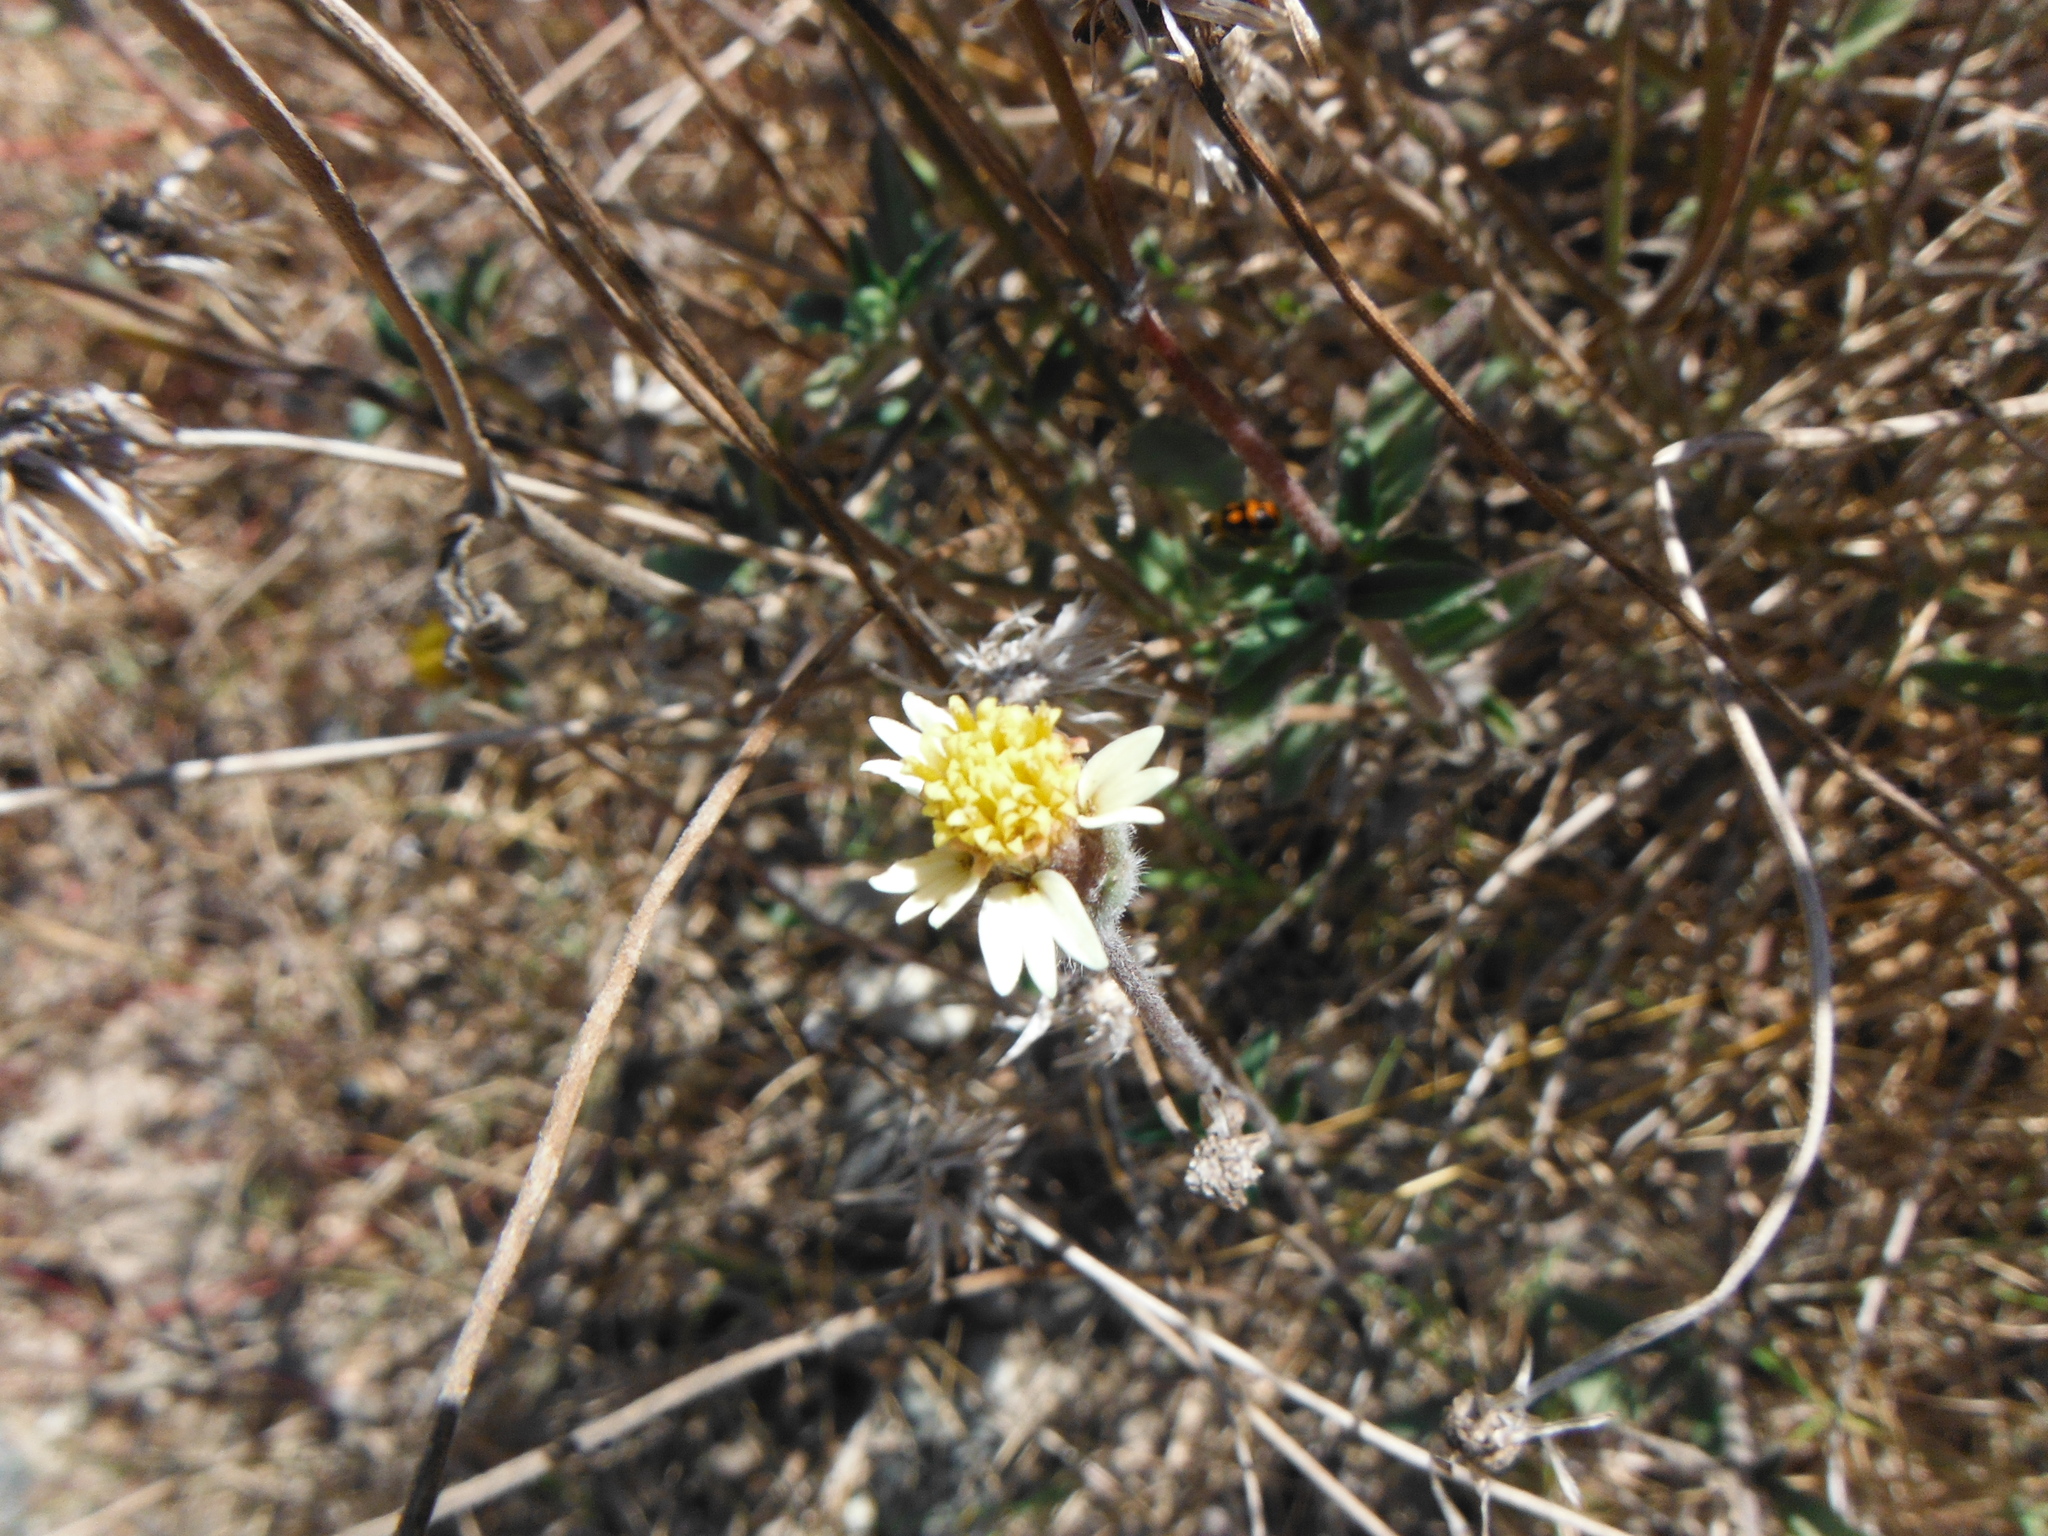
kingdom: Plantae
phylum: Tracheophyta
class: Magnoliopsida
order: Asterales
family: Asteraceae
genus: Tridax
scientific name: Tridax procumbens
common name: Coatbuttons
